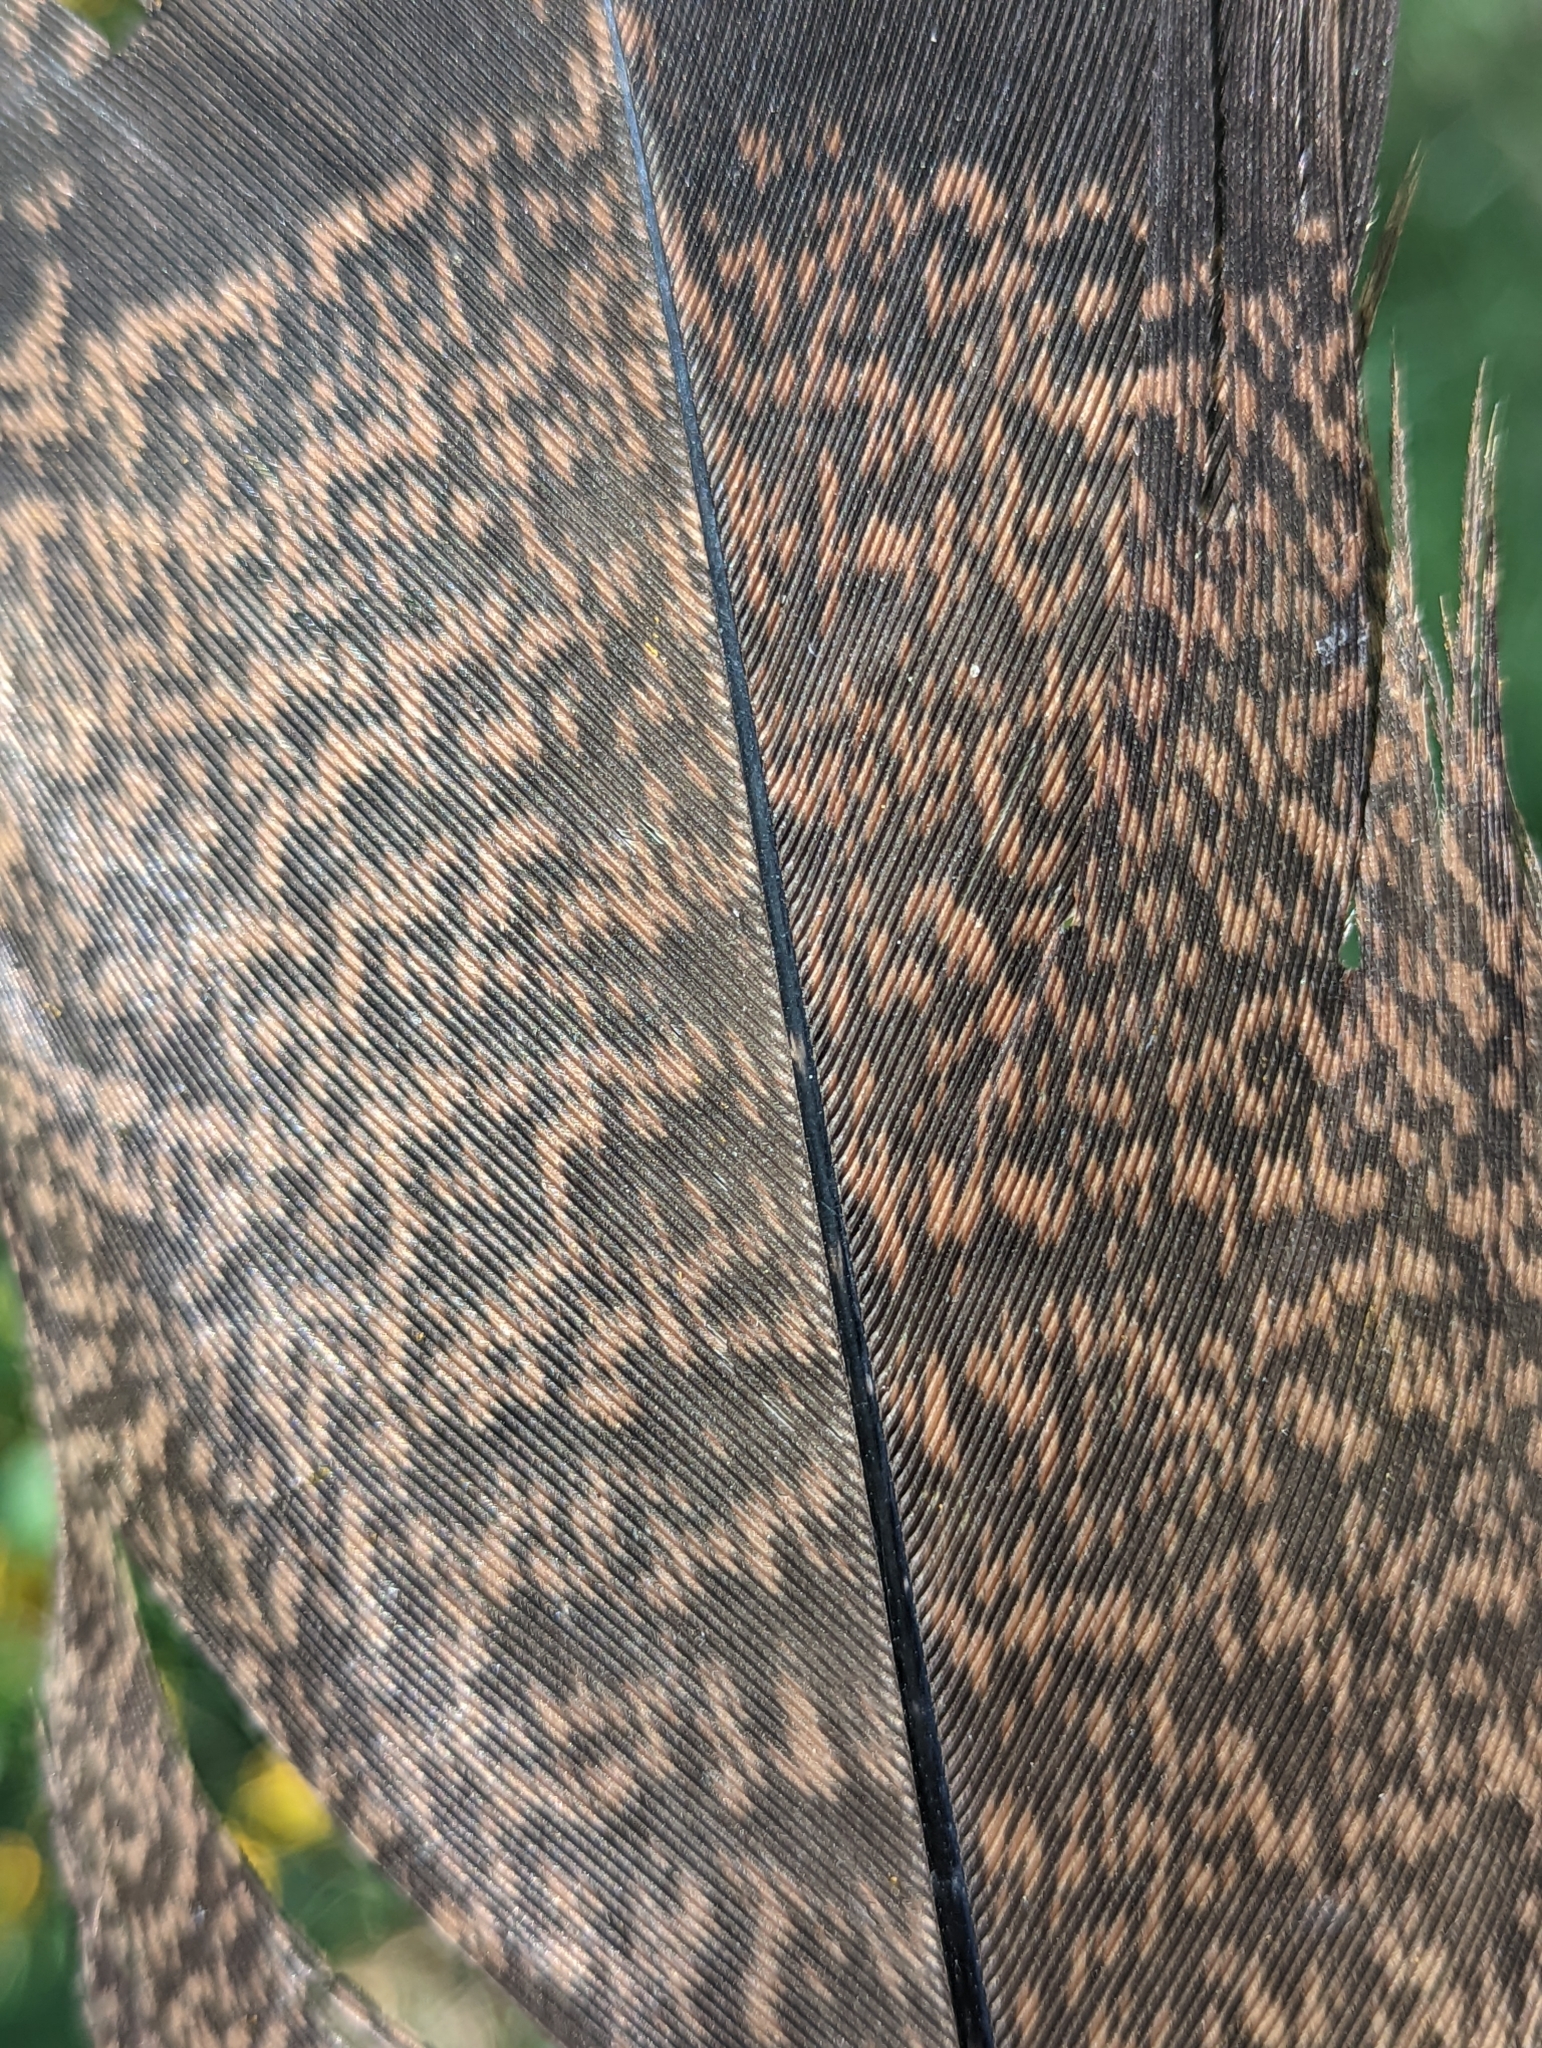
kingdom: Animalia
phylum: Chordata
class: Aves
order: Galliformes
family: Phasianidae
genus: Meleagris
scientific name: Meleagris gallopavo
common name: Wild turkey
